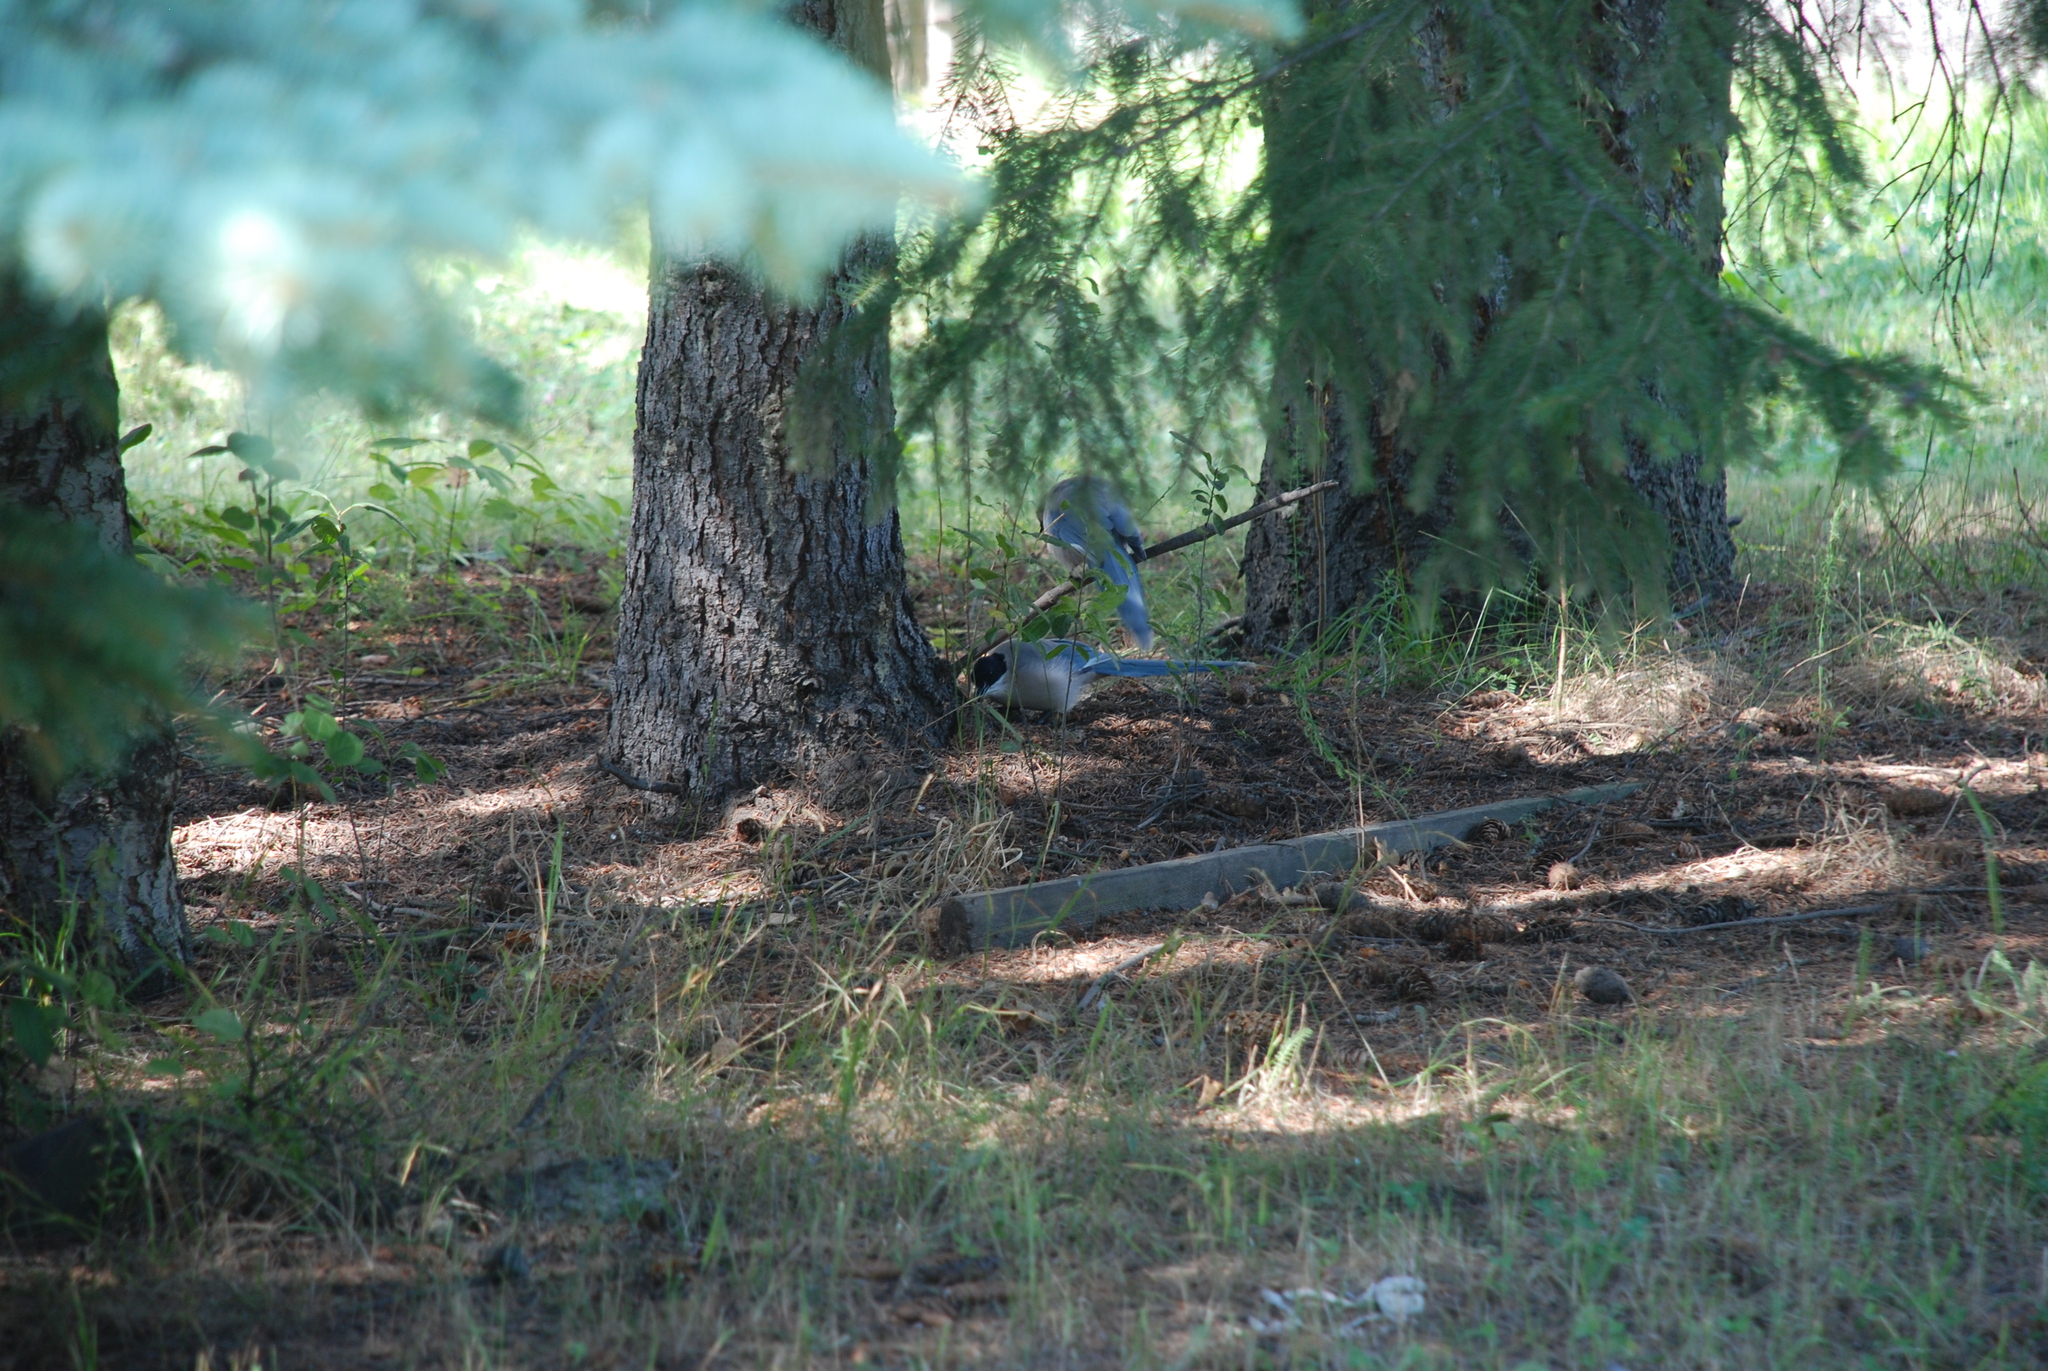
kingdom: Animalia
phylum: Chordata
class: Aves
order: Passeriformes
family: Corvidae
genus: Cyanopica
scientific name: Cyanopica cyanus
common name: Azure-winged magpie
